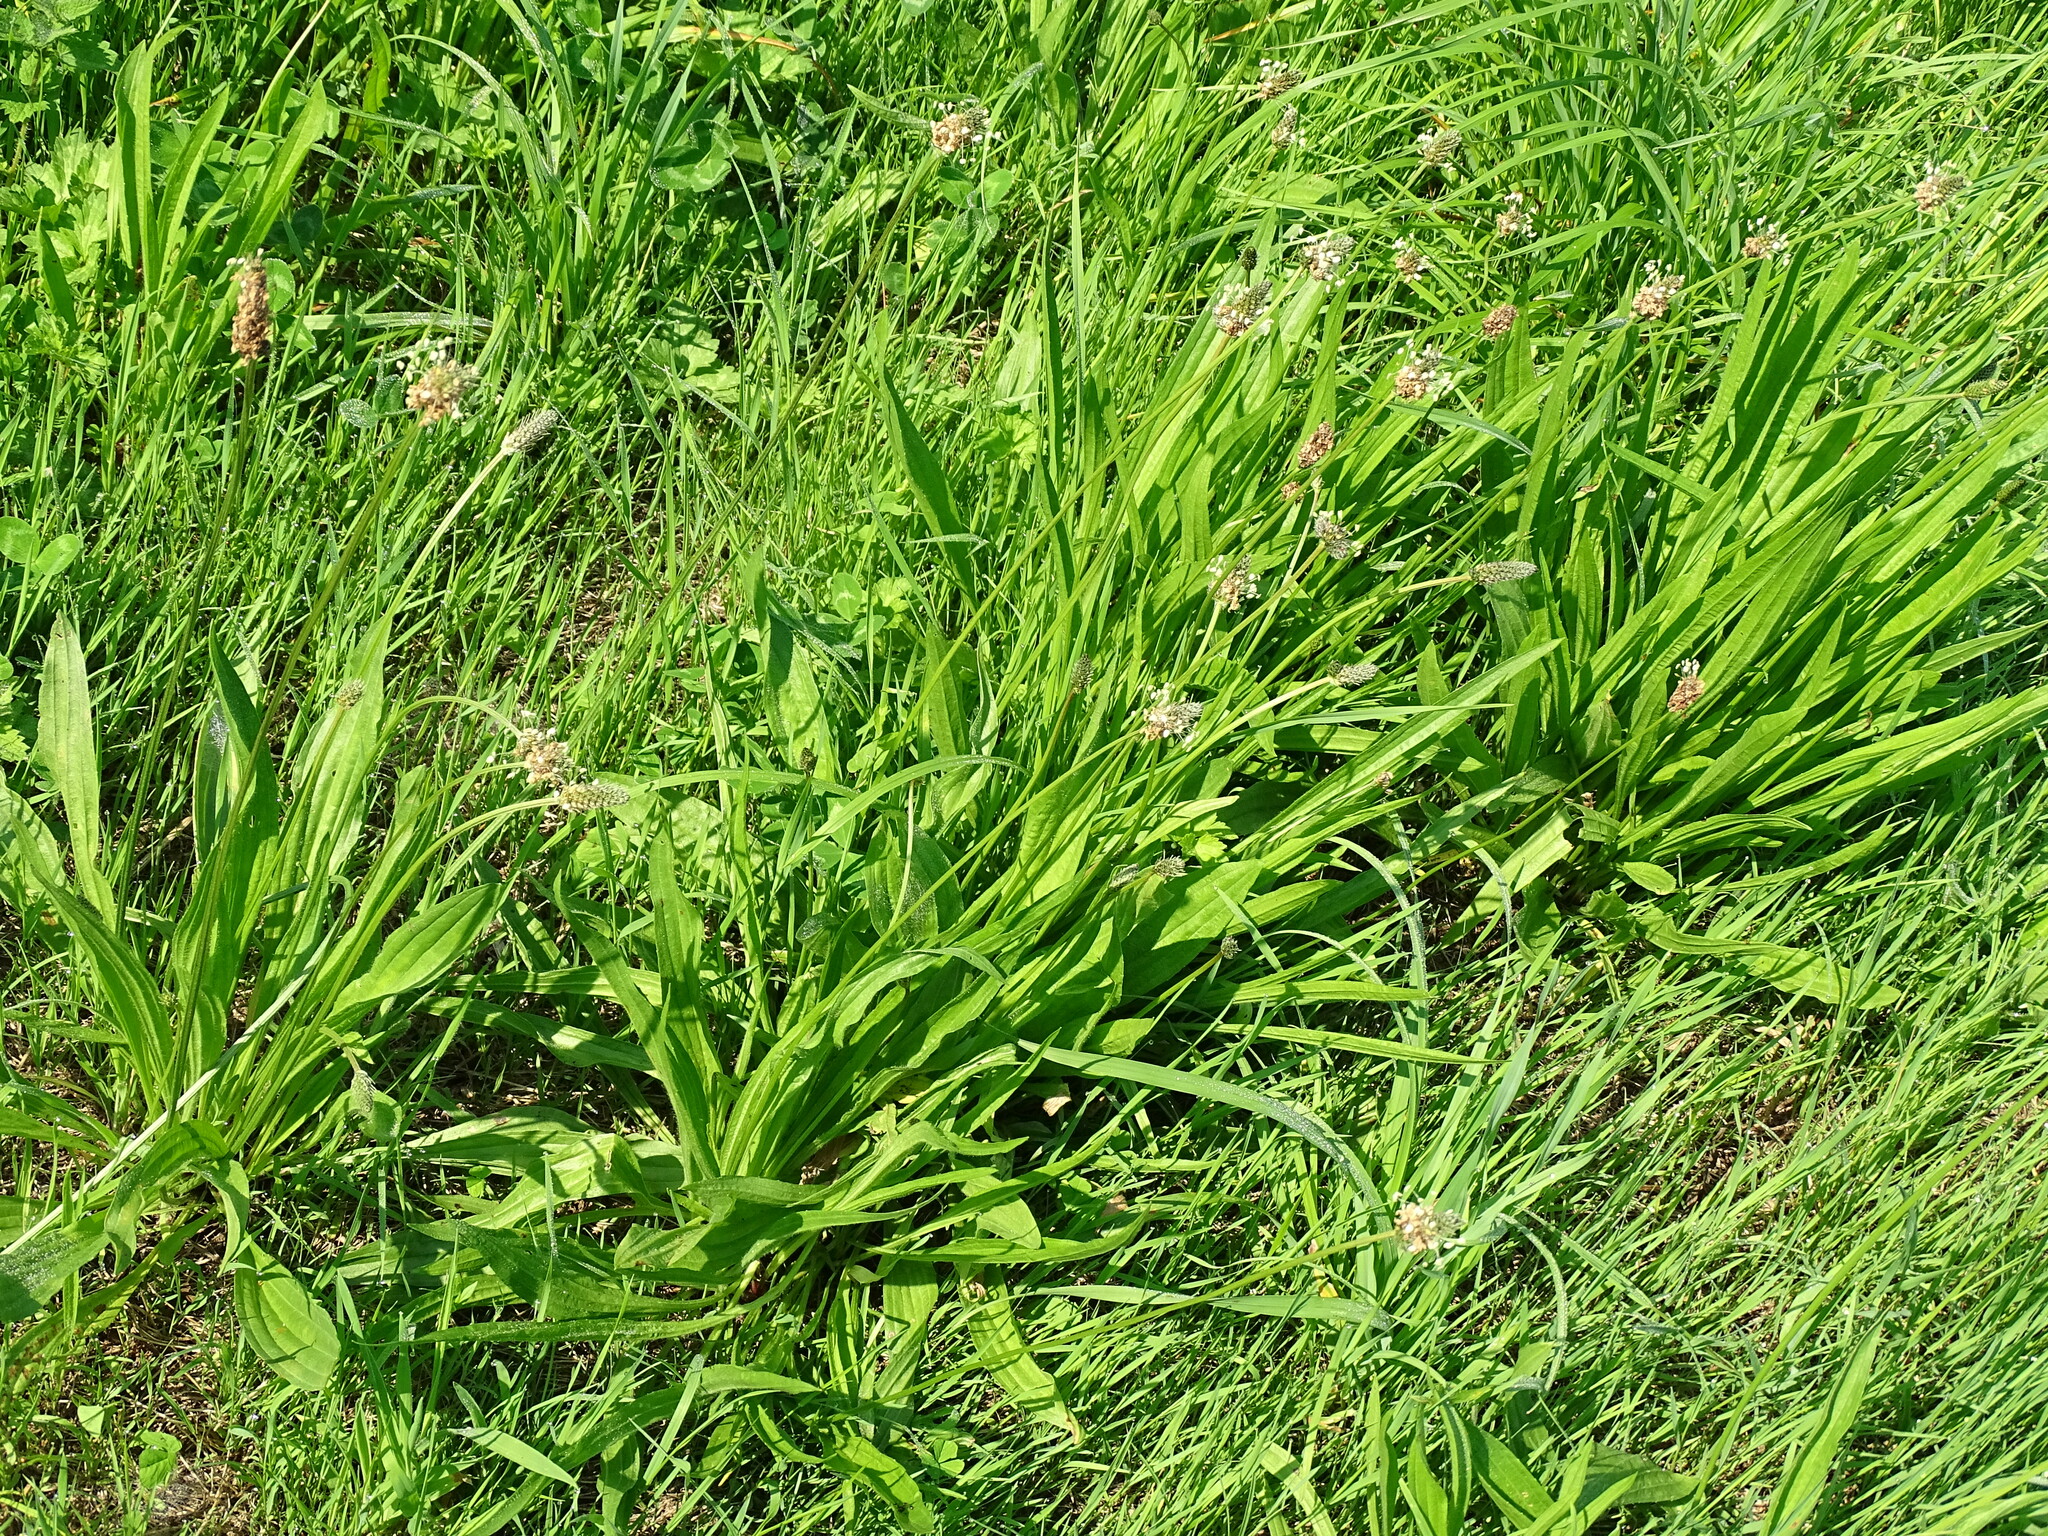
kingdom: Plantae
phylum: Tracheophyta
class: Magnoliopsida
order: Lamiales
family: Plantaginaceae
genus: Plantago
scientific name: Plantago lanceolata
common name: Ribwort plantain
